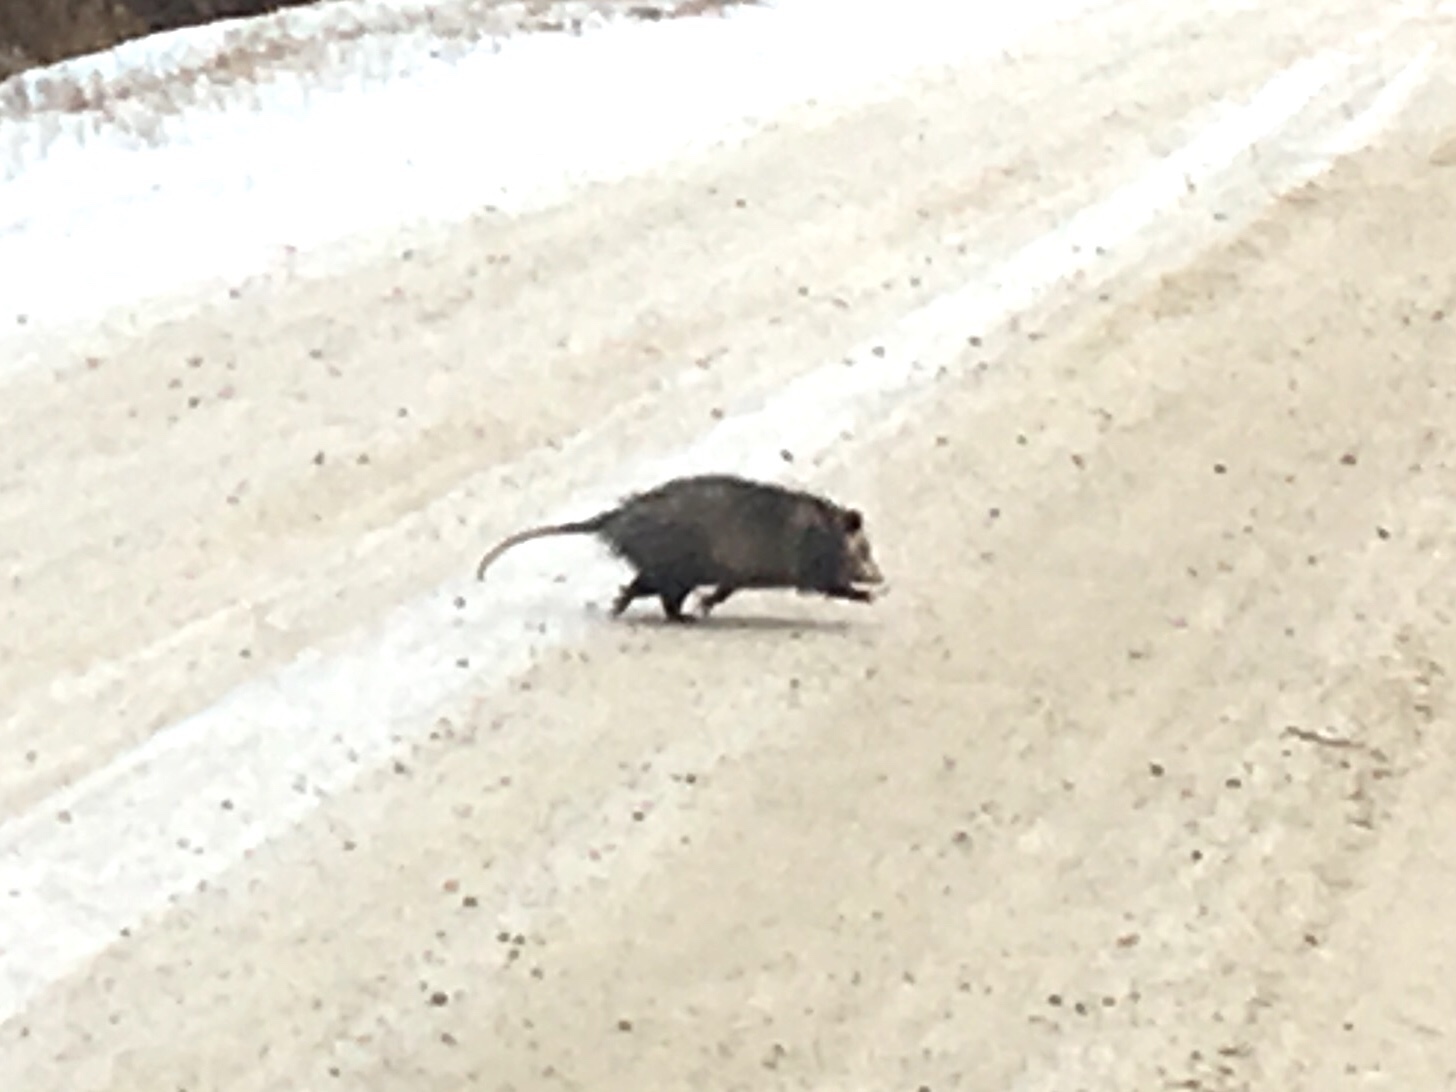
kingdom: Animalia
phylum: Chordata
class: Mammalia
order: Didelphimorphia
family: Didelphidae
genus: Didelphis
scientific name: Didelphis virginiana
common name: Virginia opossum
